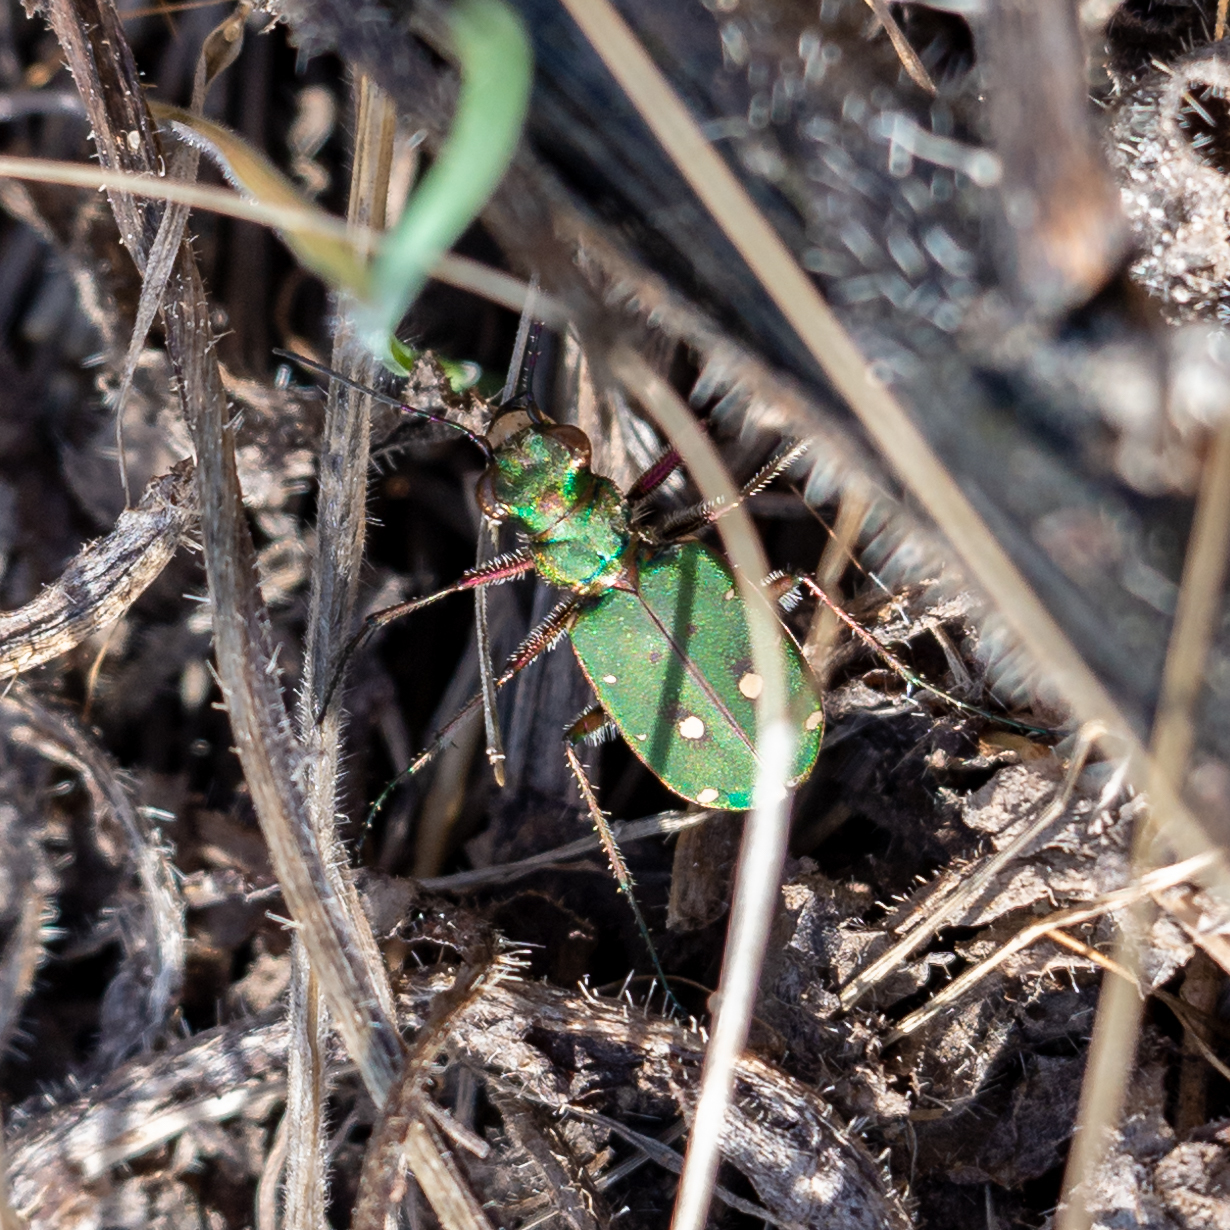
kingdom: Animalia
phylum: Arthropoda
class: Insecta
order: Coleoptera
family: Carabidae
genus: Cicindela
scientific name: Cicindela campestris
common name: Common tiger beetle
